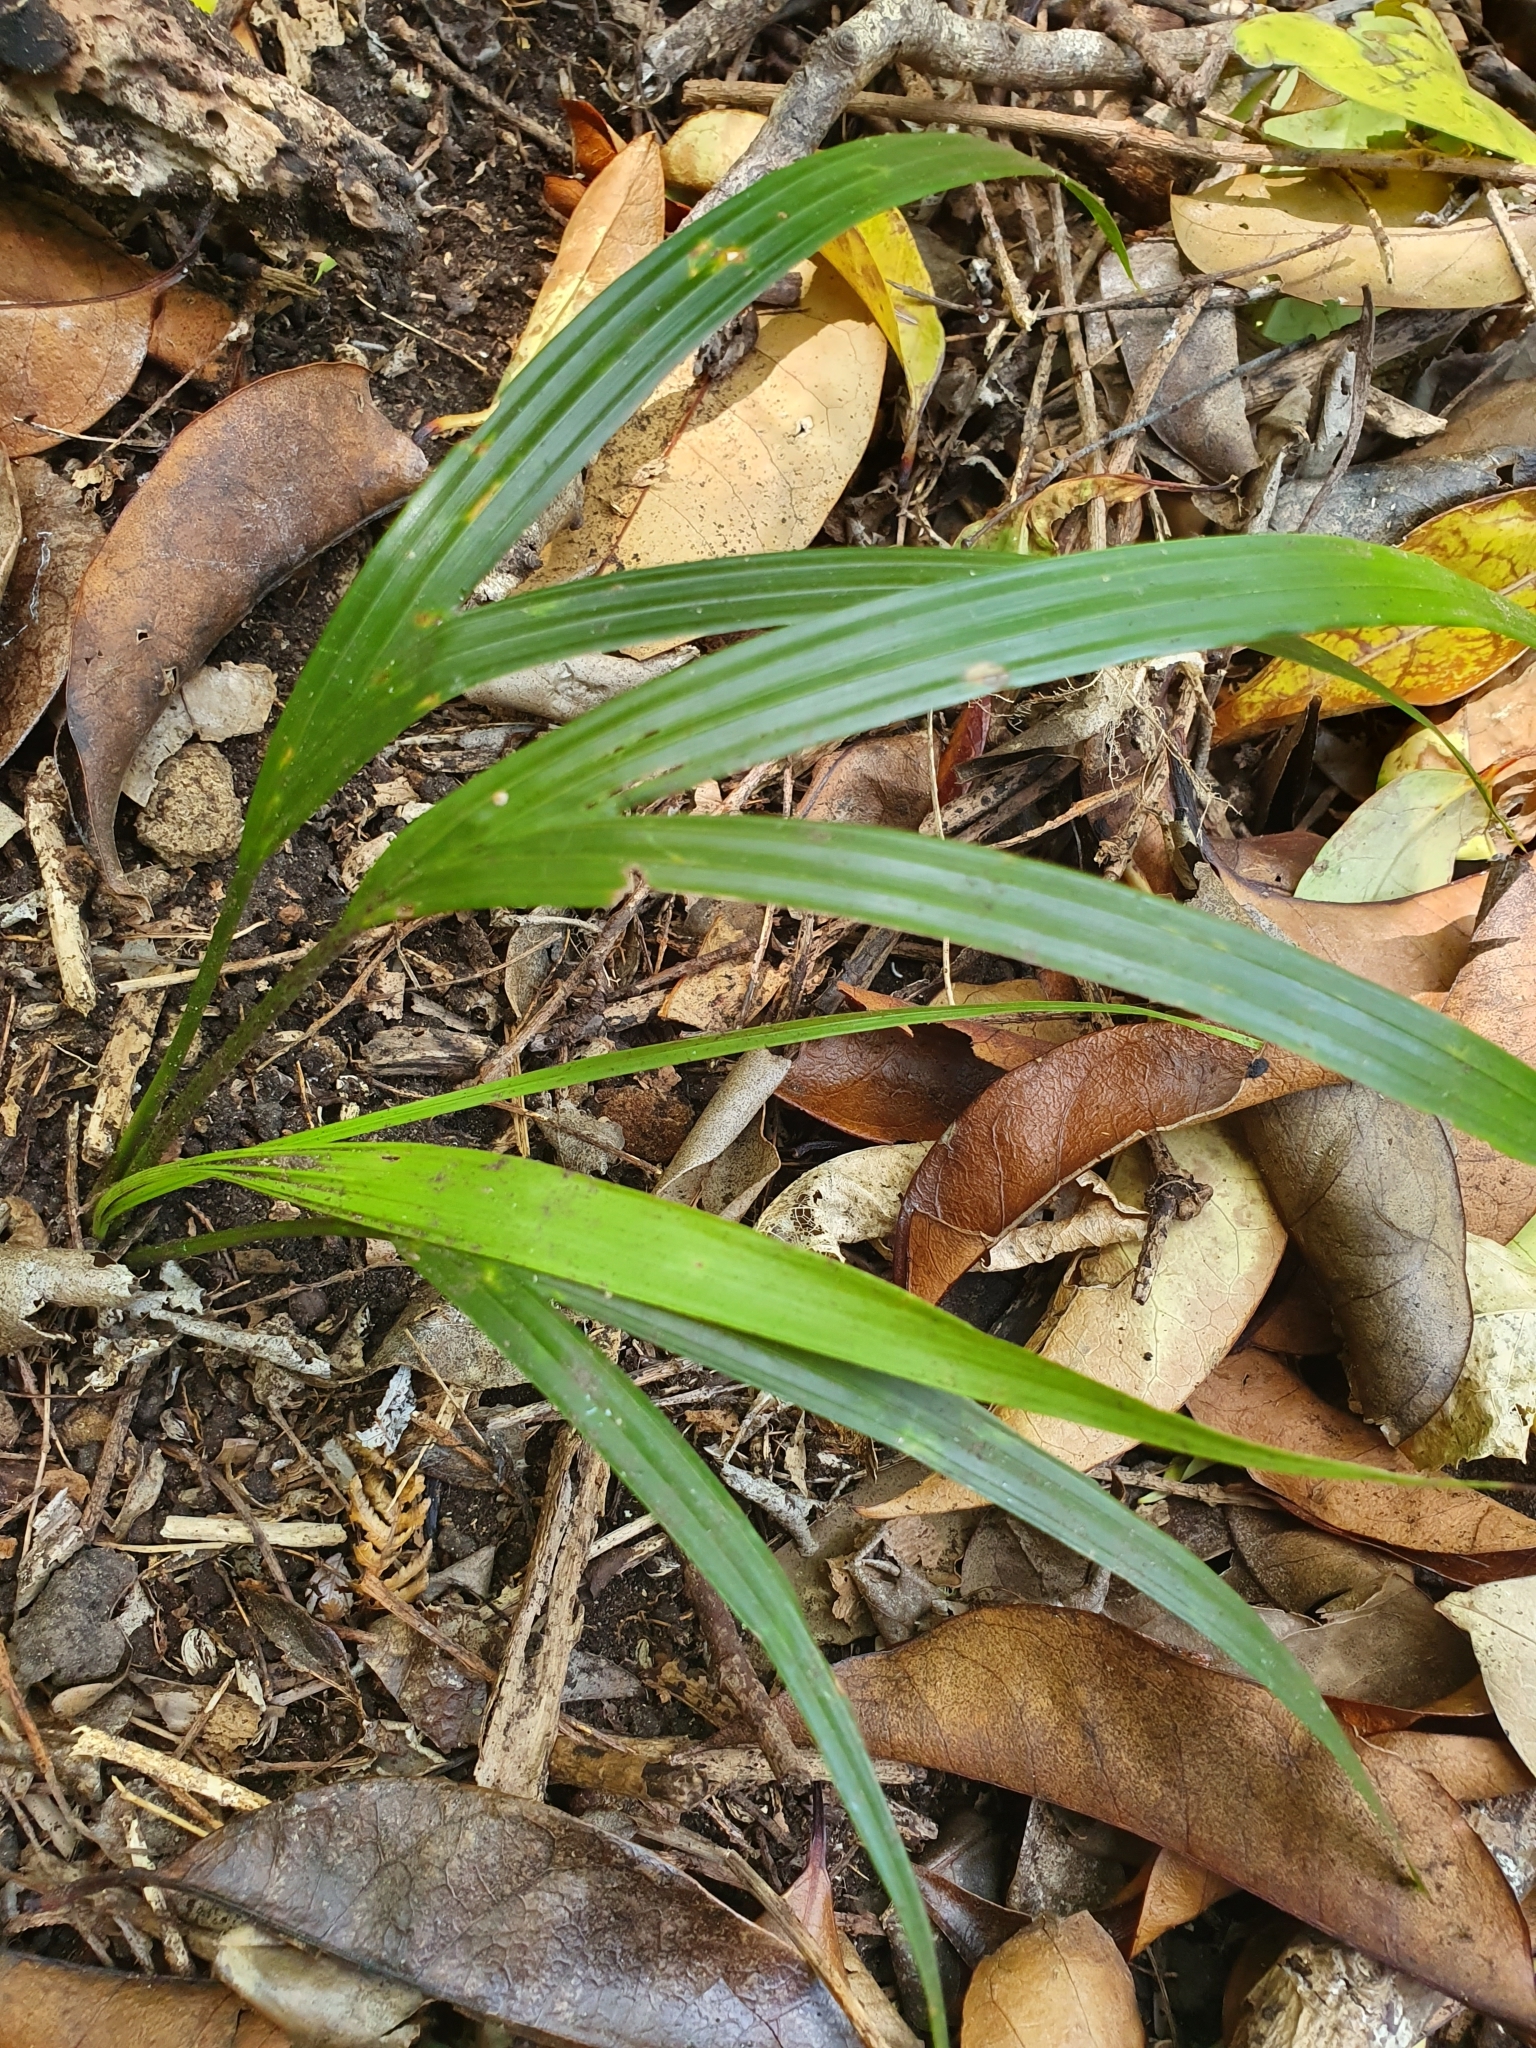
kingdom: Plantae
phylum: Tracheophyta
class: Liliopsida
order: Arecales
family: Arecaceae
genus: Rhopalostylis
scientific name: Rhopalostylis sapida
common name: Feather-duster palm
